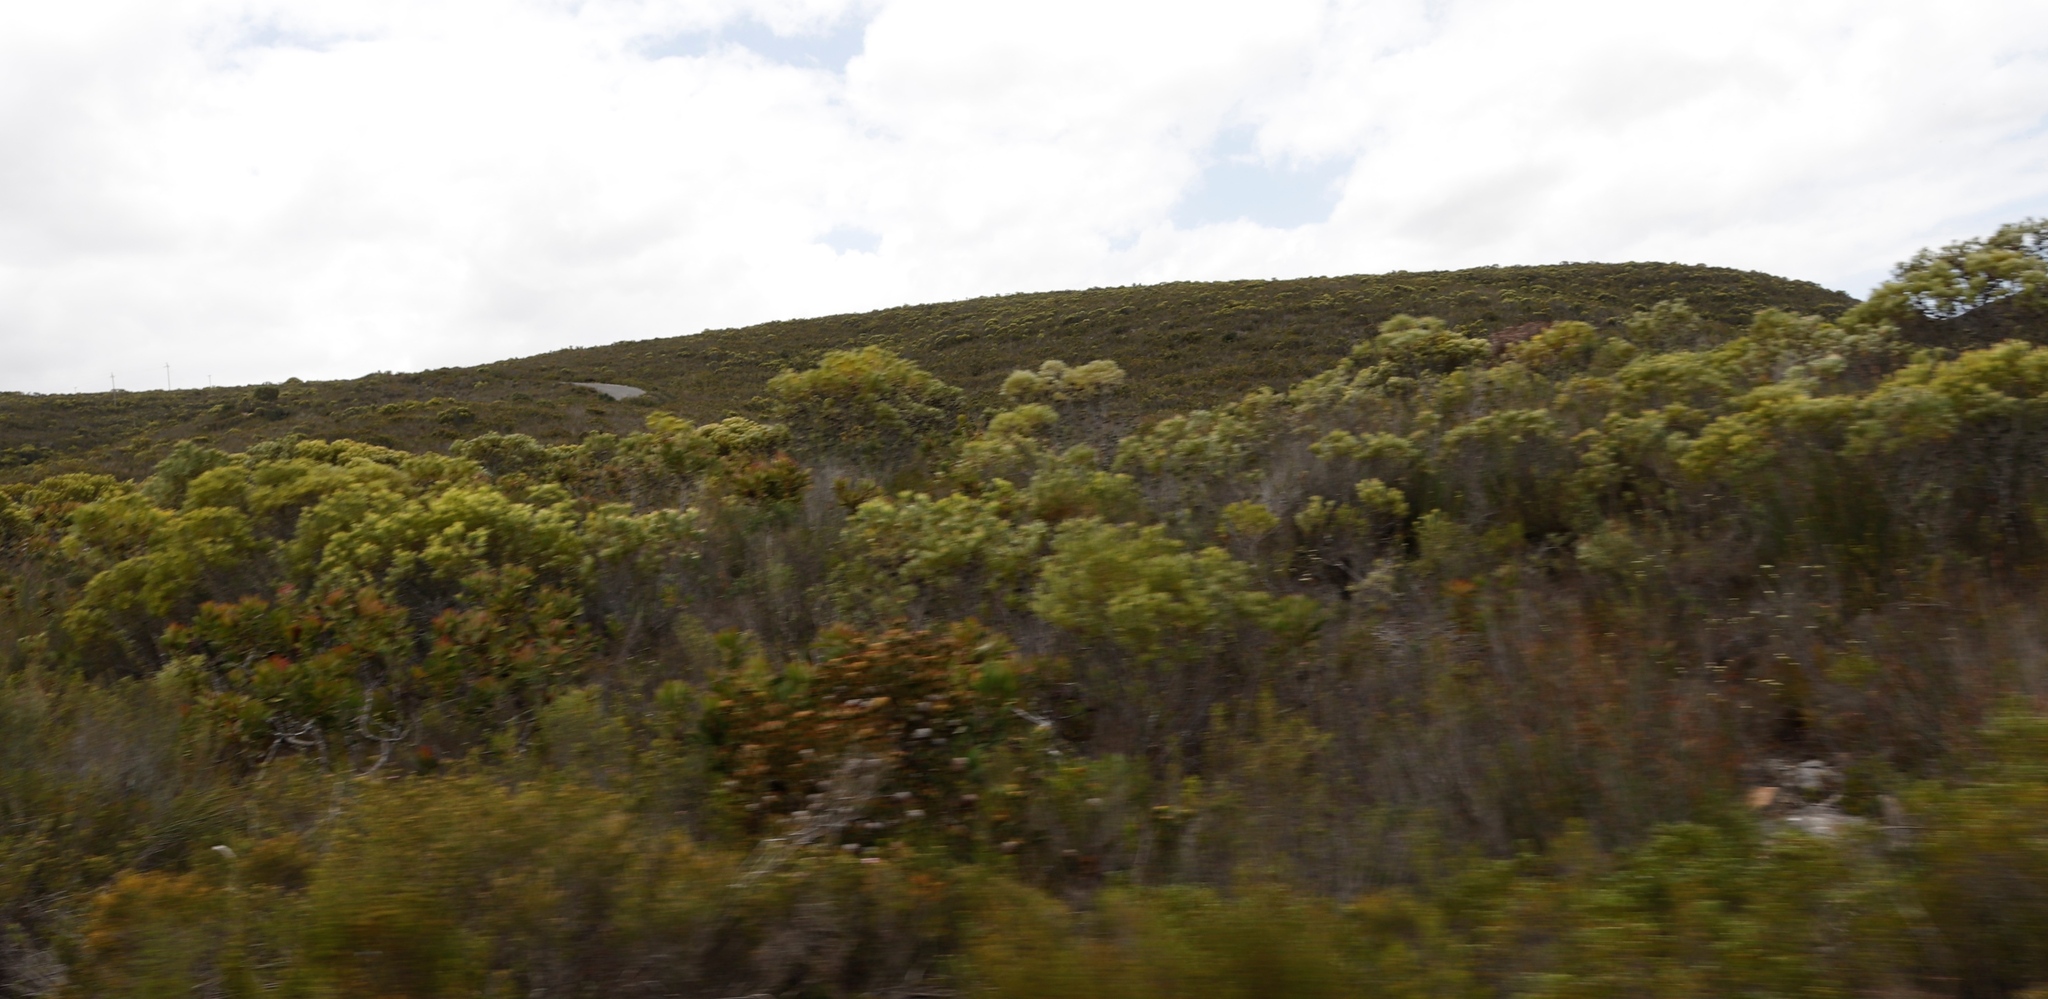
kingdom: Plantae
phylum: Tracheophyta
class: Magnoliopsida
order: Proteales
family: Proteaceae
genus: Leucadendron
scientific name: Leucadendron meridianum
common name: Limestone conebush
